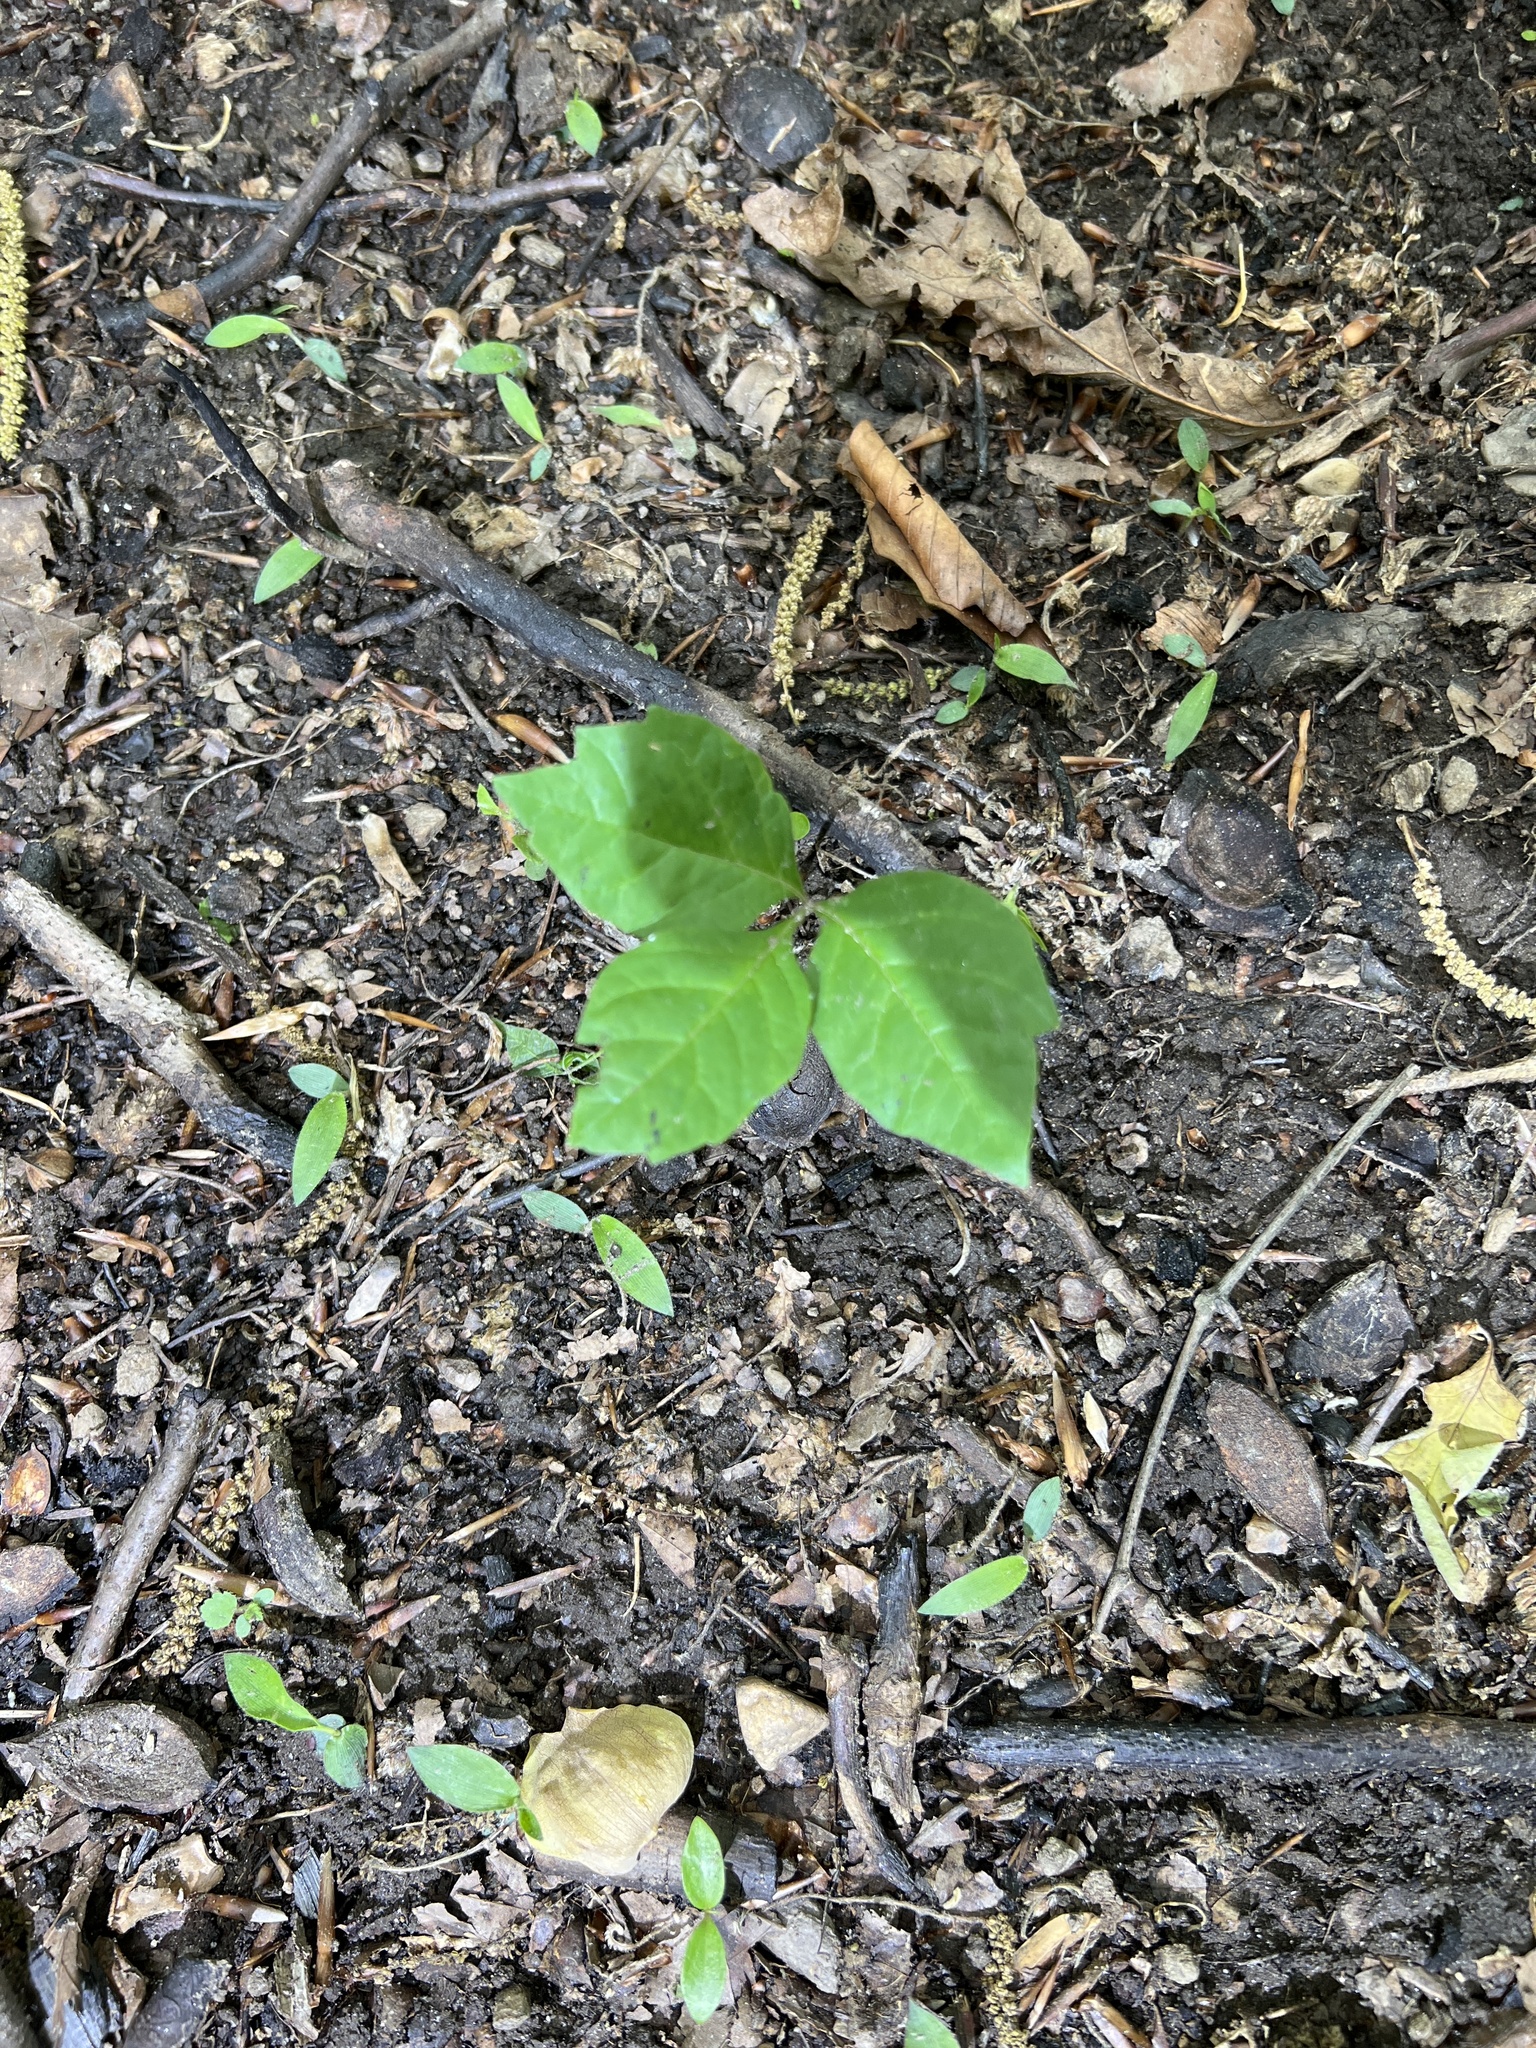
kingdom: Plantae
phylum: Tracheophyta
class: Magnoliopsida
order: Sapindales
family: Anacardiaceae
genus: Toxicodendron
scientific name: Toxicodendron radicans
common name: Poison ivy
